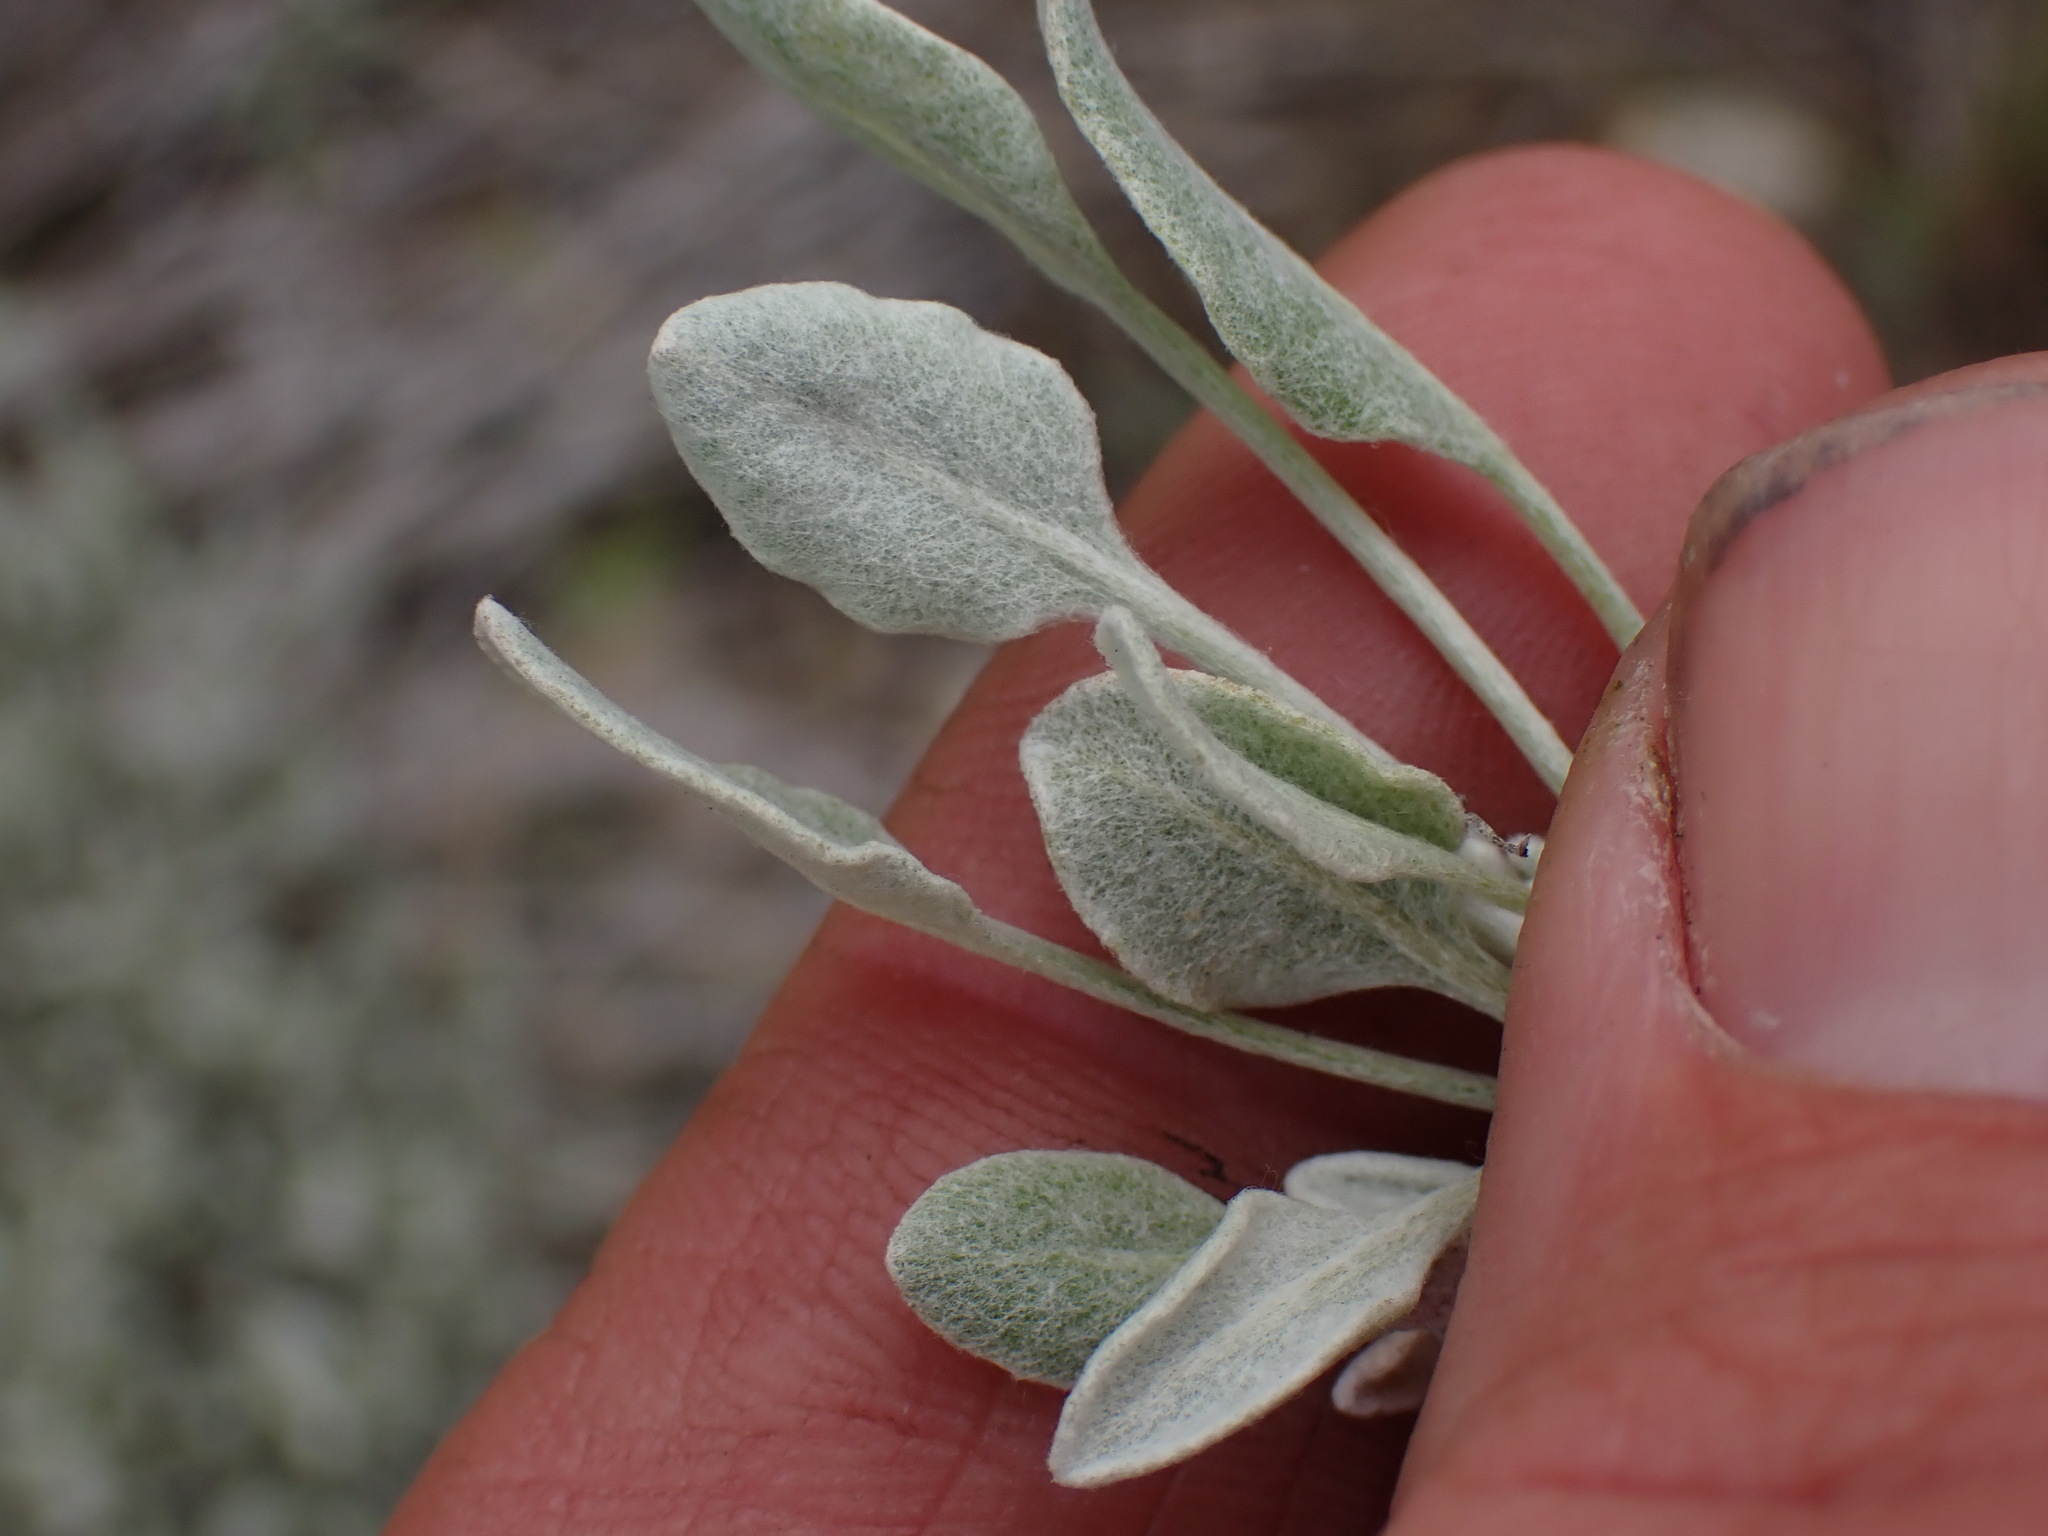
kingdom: Plantae
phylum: Tracheophyta
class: Magnoliopsida
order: Caryophyllales
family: Polygonaceae
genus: Eriogonum
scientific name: Eriogonum niveum
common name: Snow wild buckwheat
